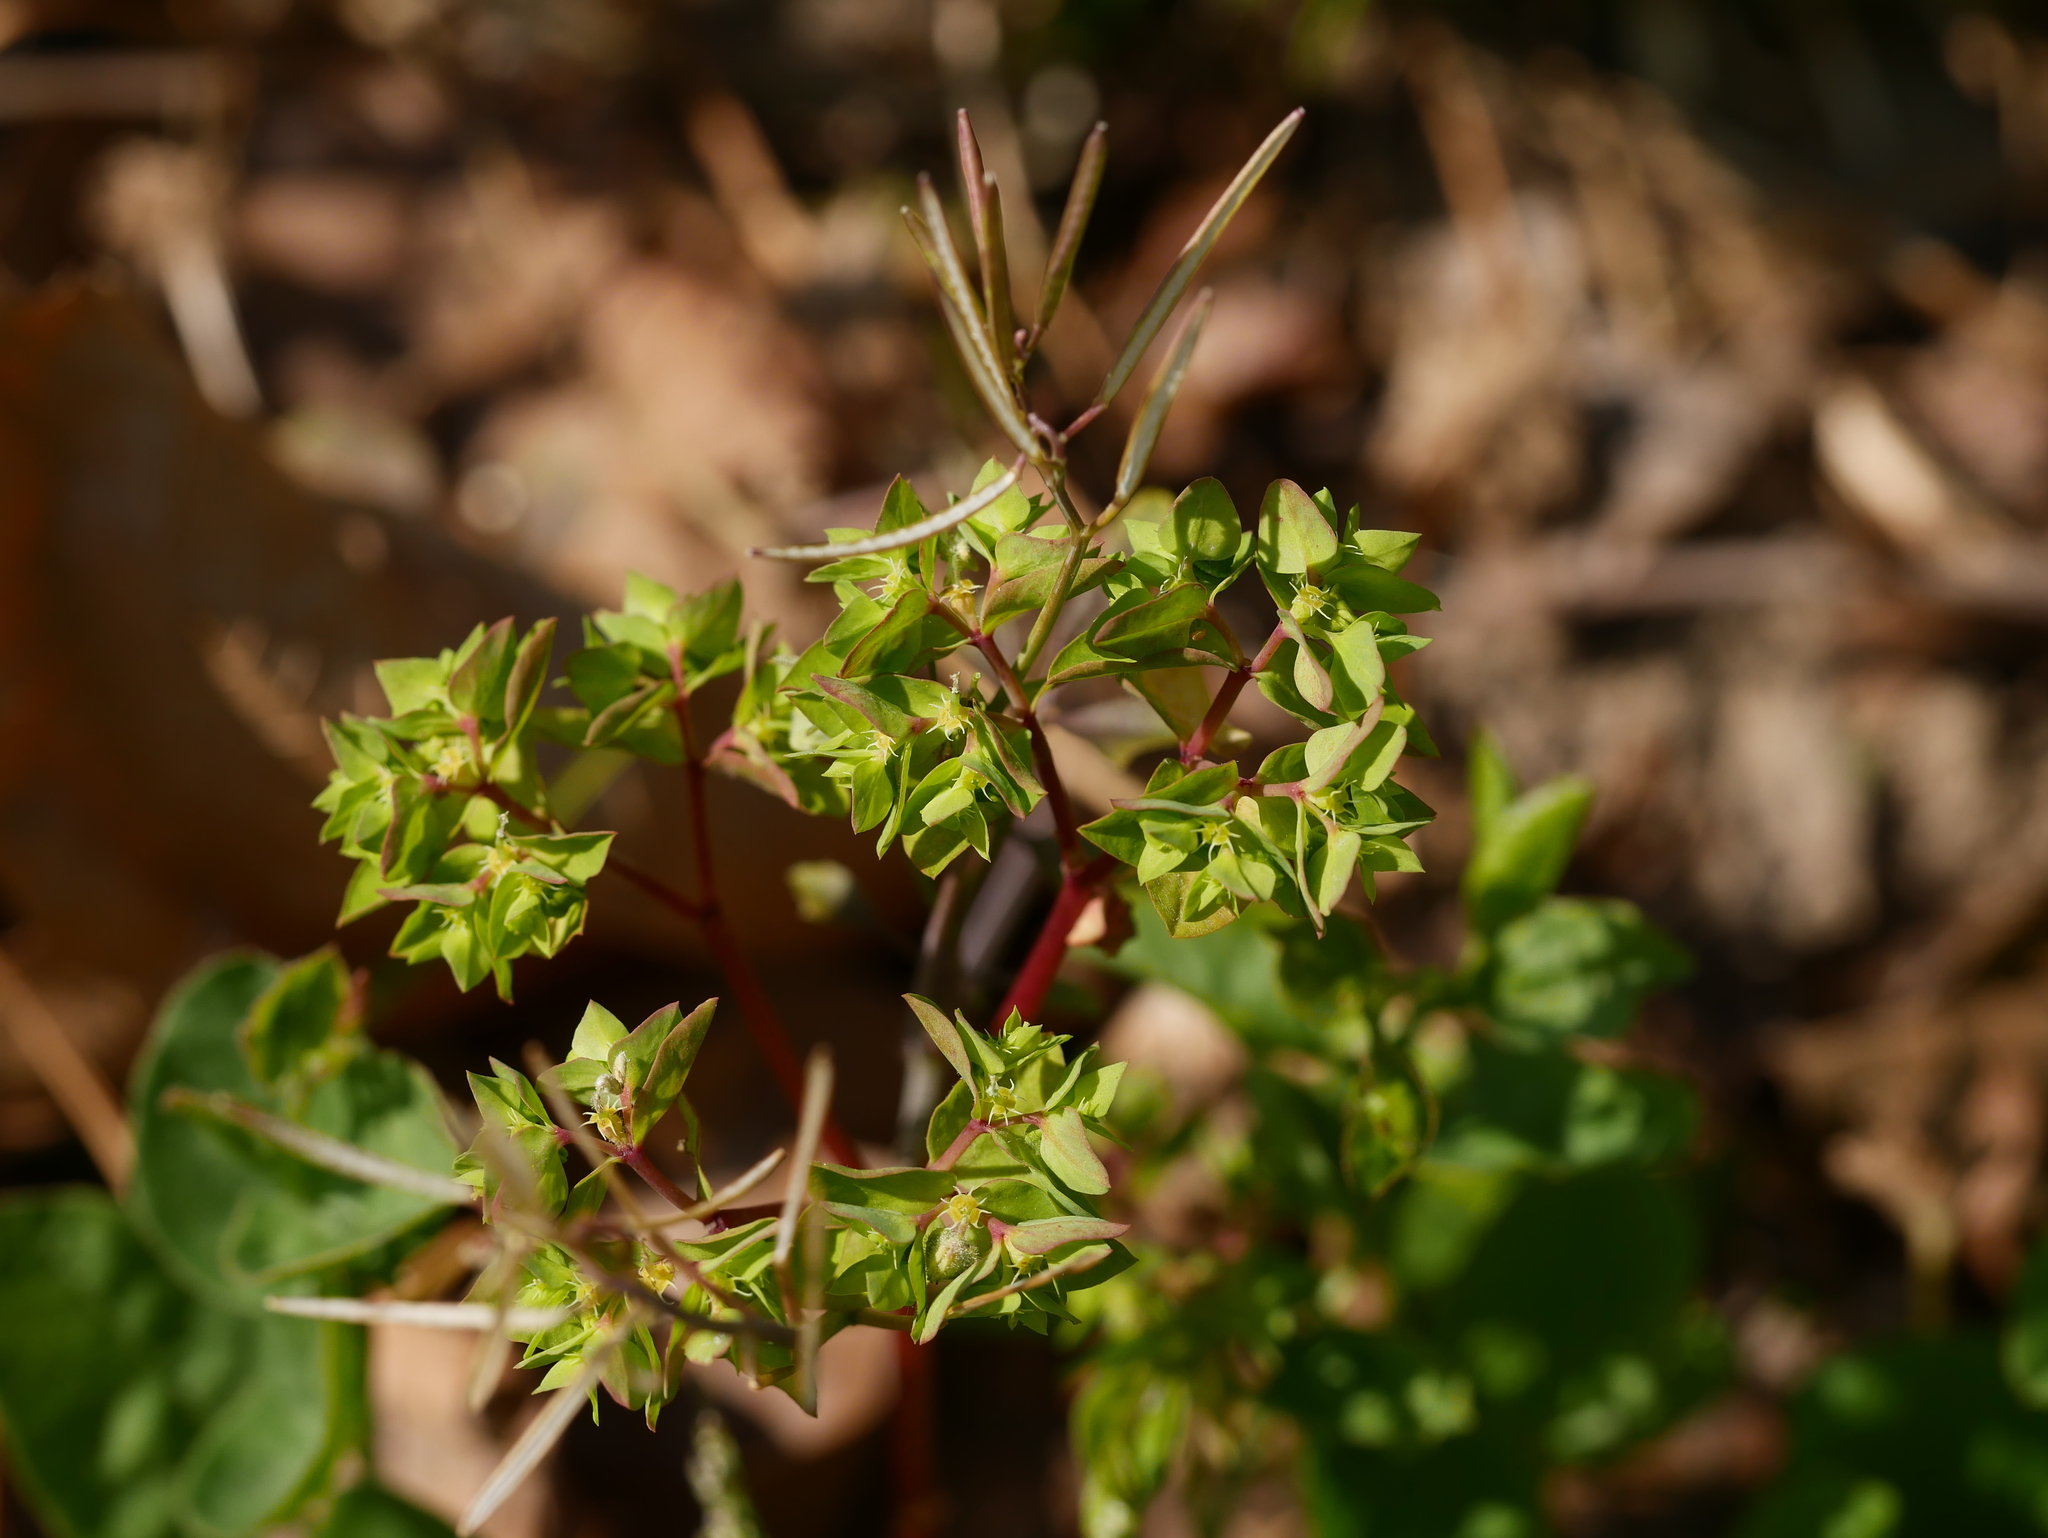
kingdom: Plantae
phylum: Tracheophyta
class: Magnoliopsida
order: Malpighiales
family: Euphorbiaceae
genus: Euphorbia
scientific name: Euphorbia peplus
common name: Petty spurge
